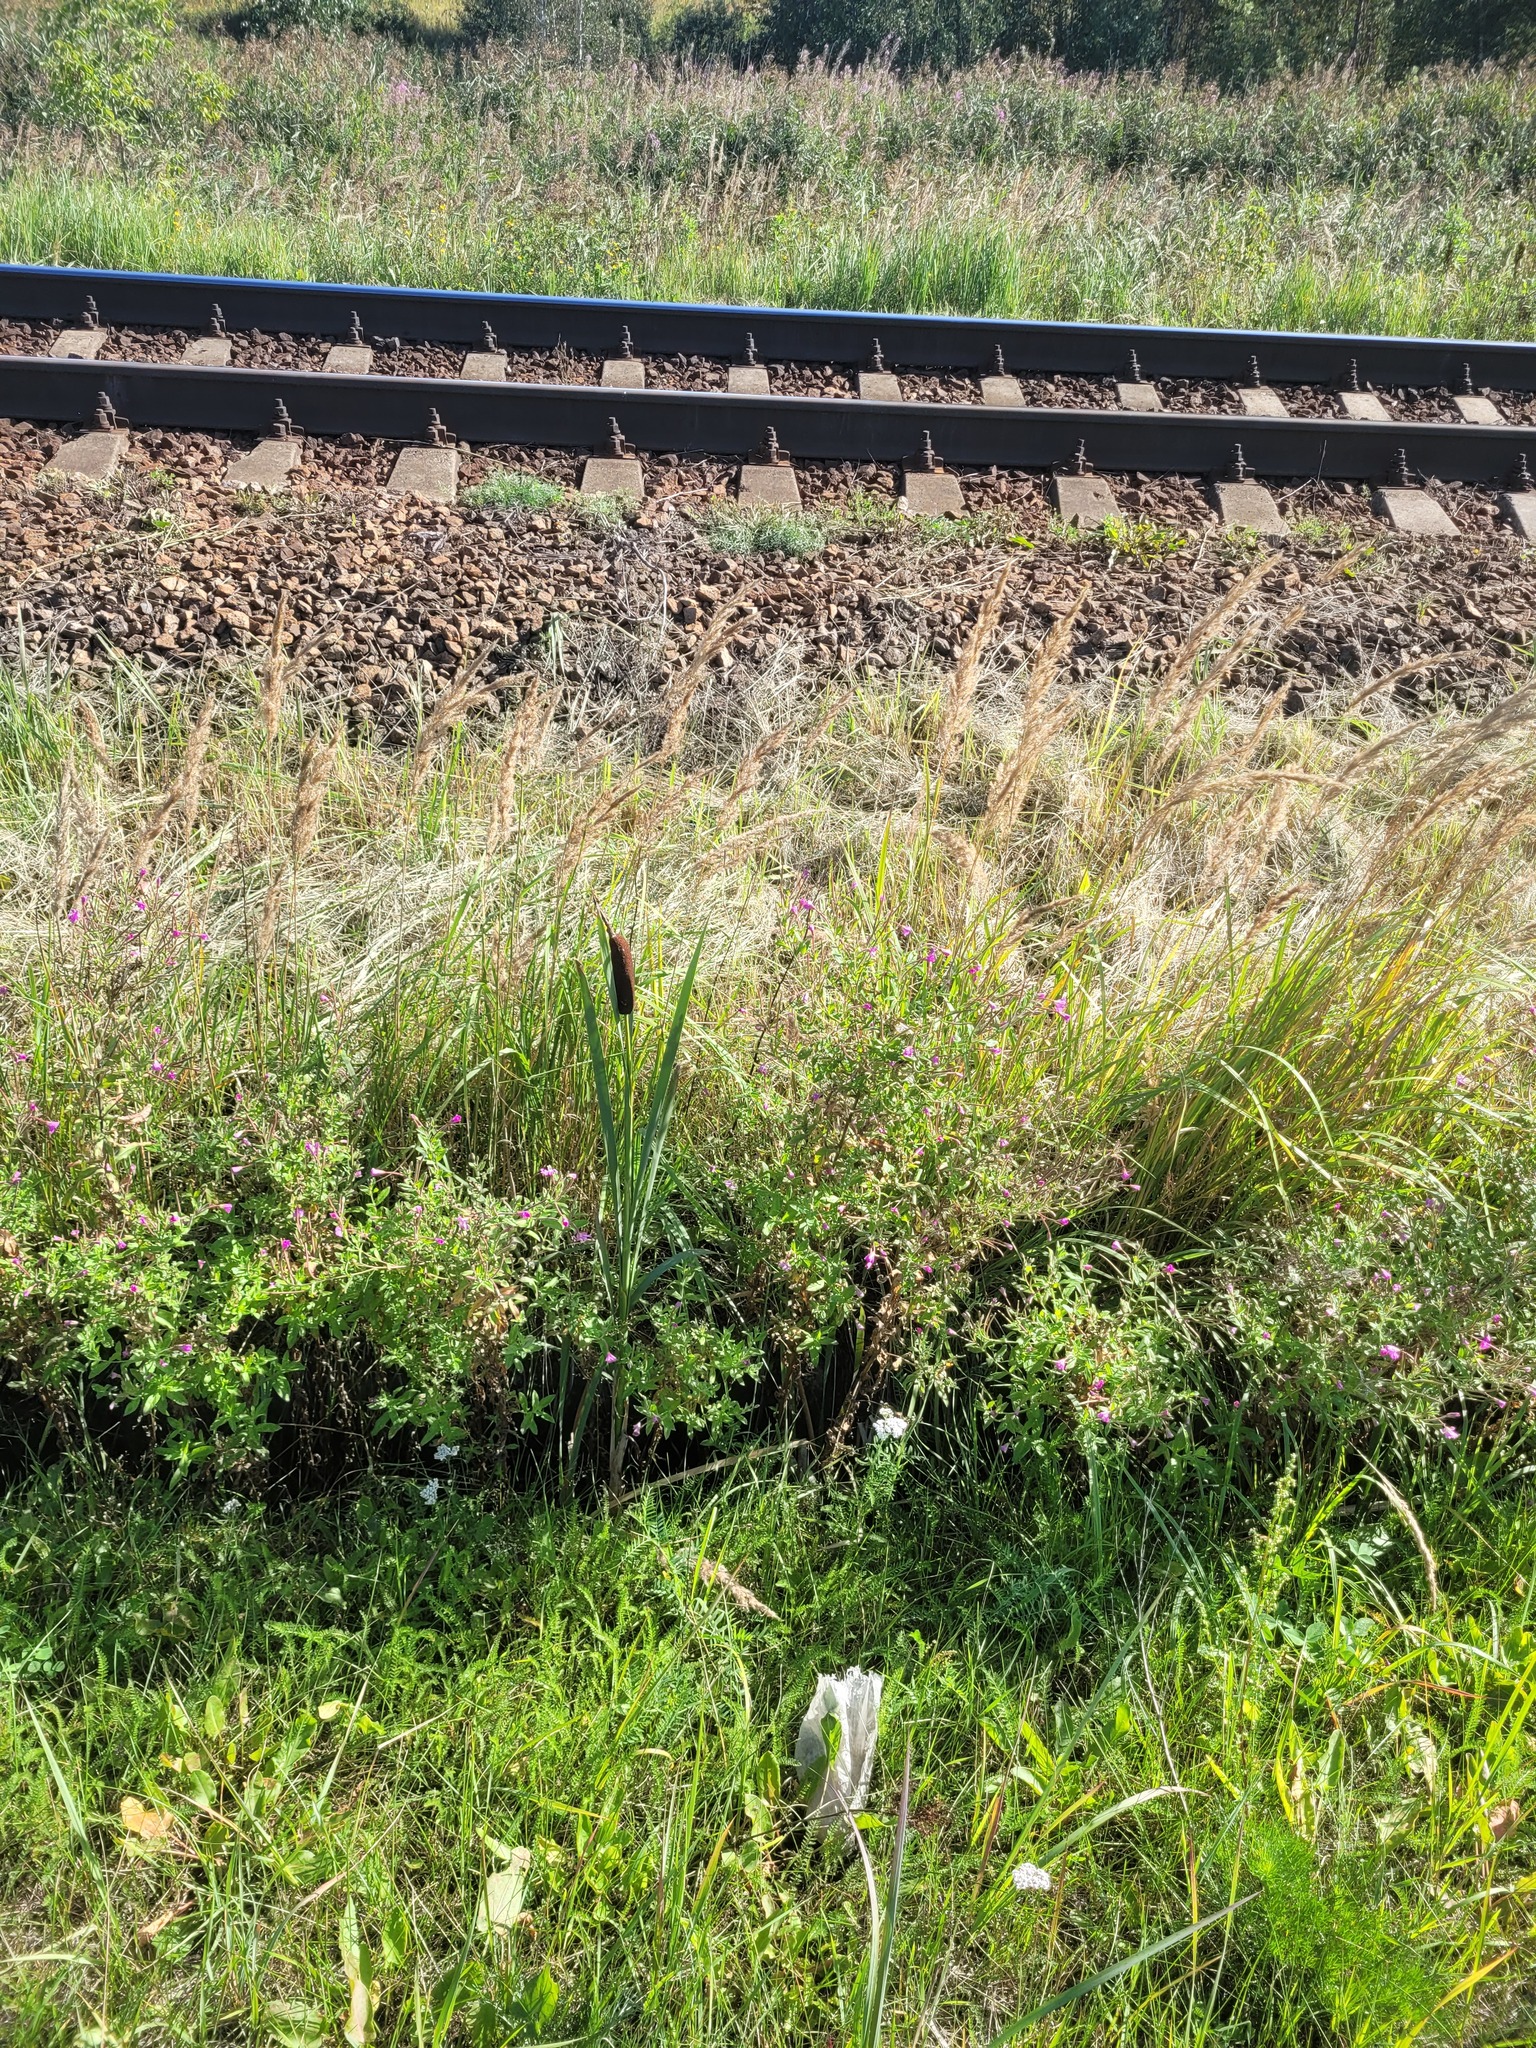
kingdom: Plantae
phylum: Tracheophyta
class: Liliopsida
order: Poales
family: Typhaceae
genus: Typha
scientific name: Typha latifolia
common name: Broadleaf cattail
